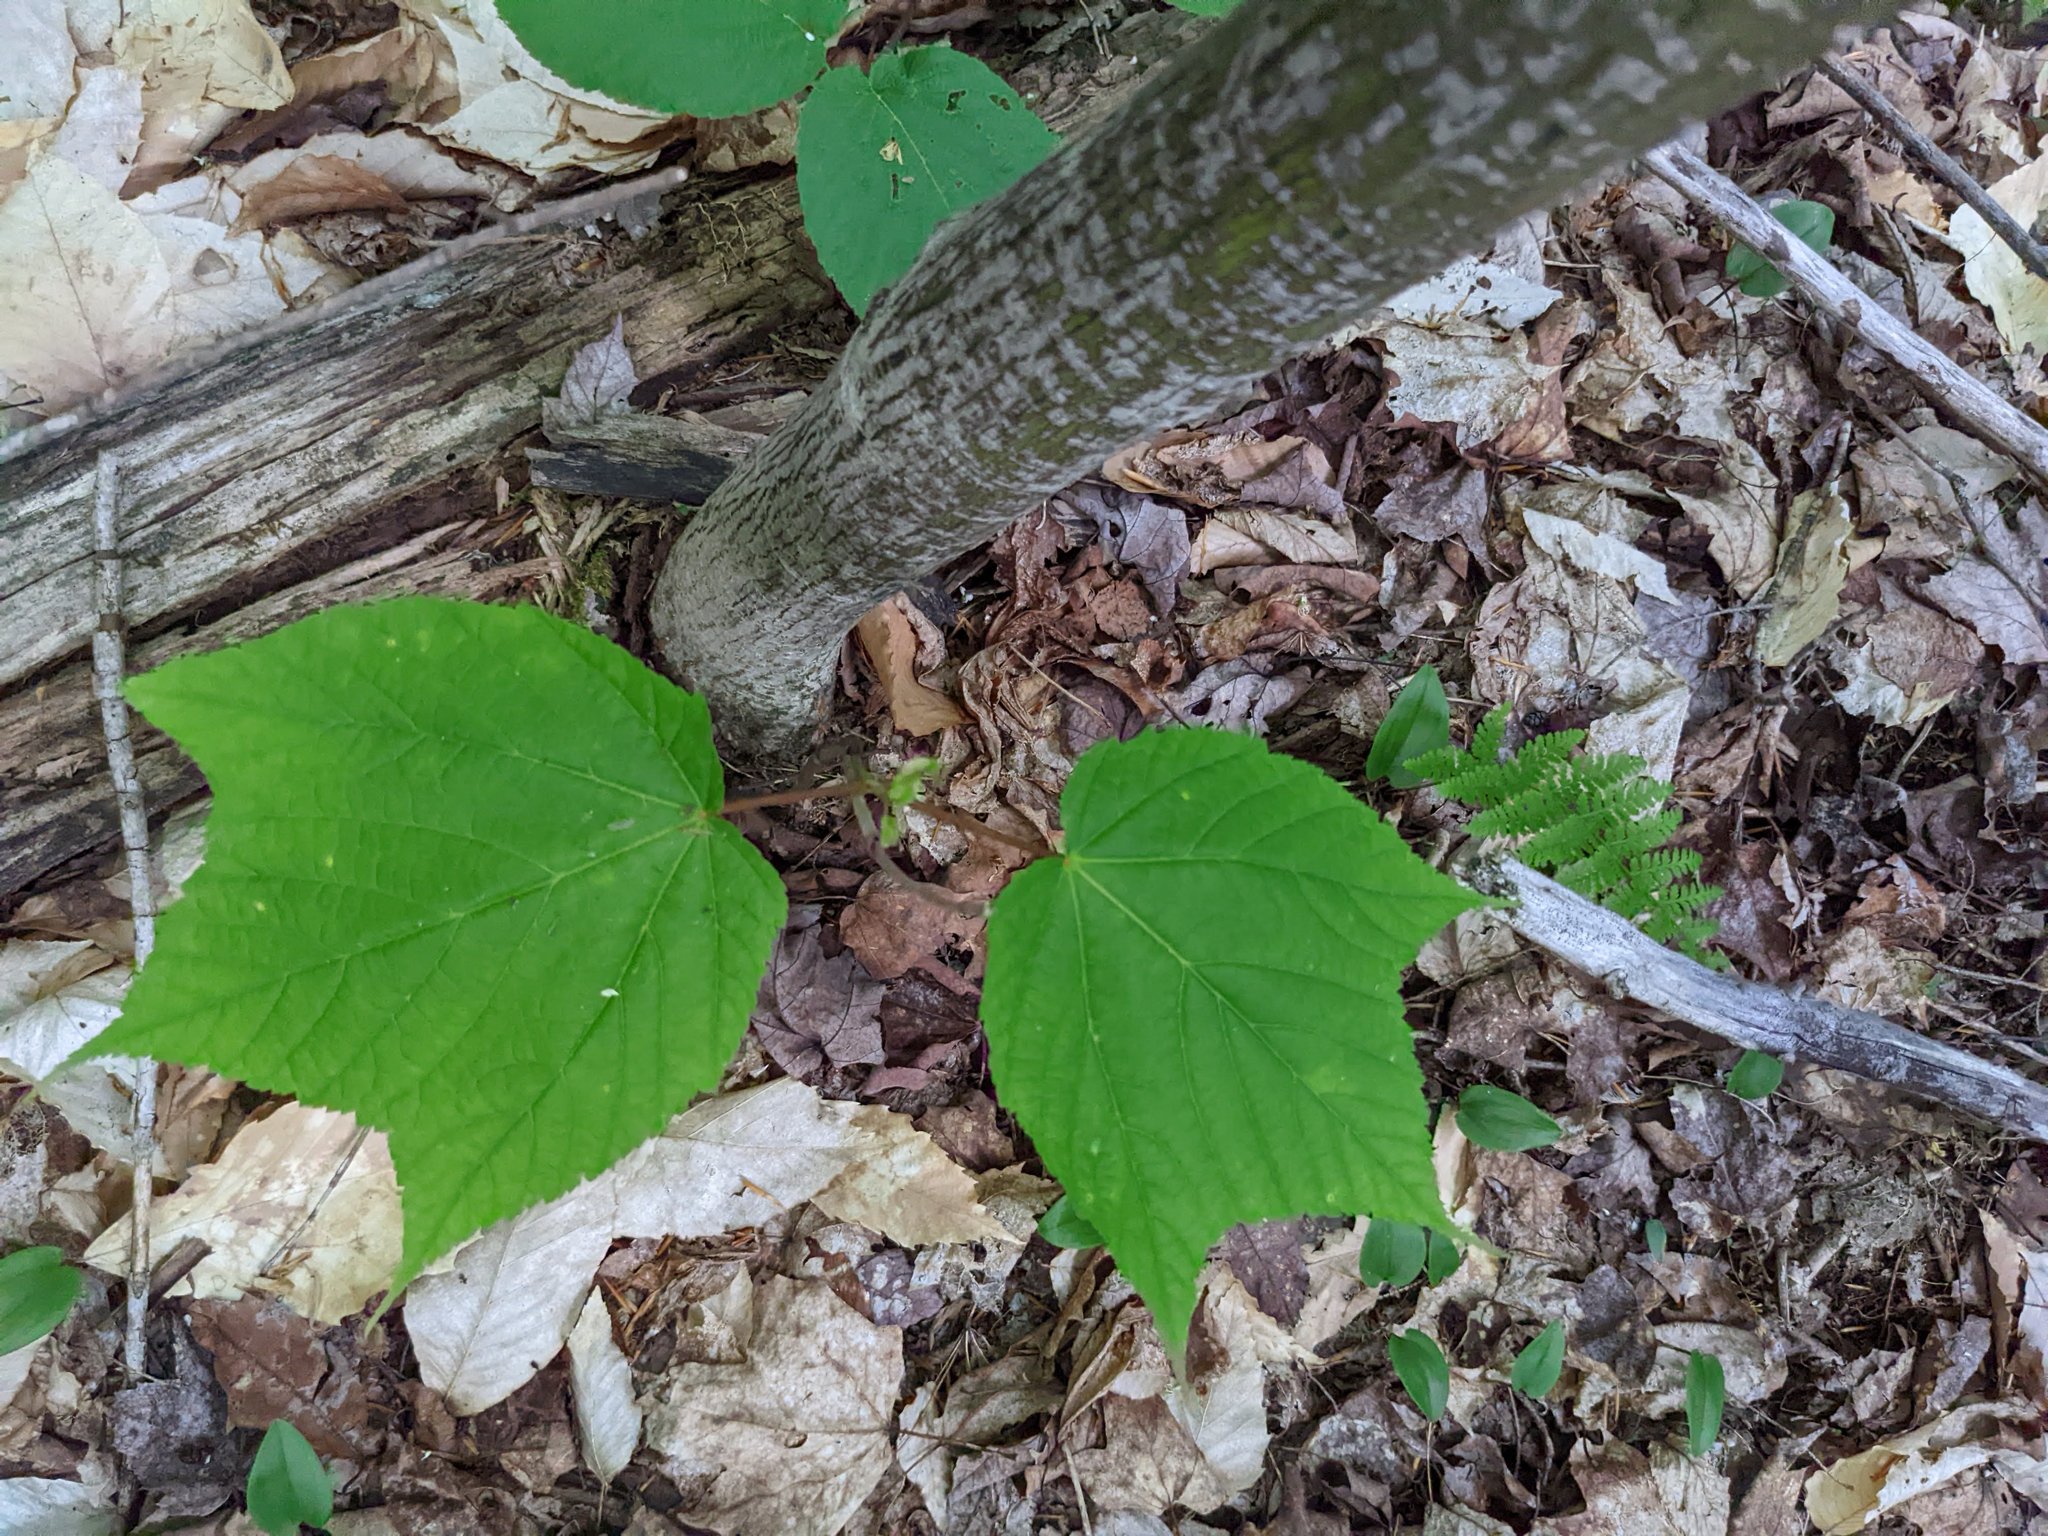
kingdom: Plantae
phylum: Tracheophyta
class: Magnoliopsida
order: Sapindales
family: Sapindaceae
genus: Acer
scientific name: Acer pensylvanicum
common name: Moosewood
